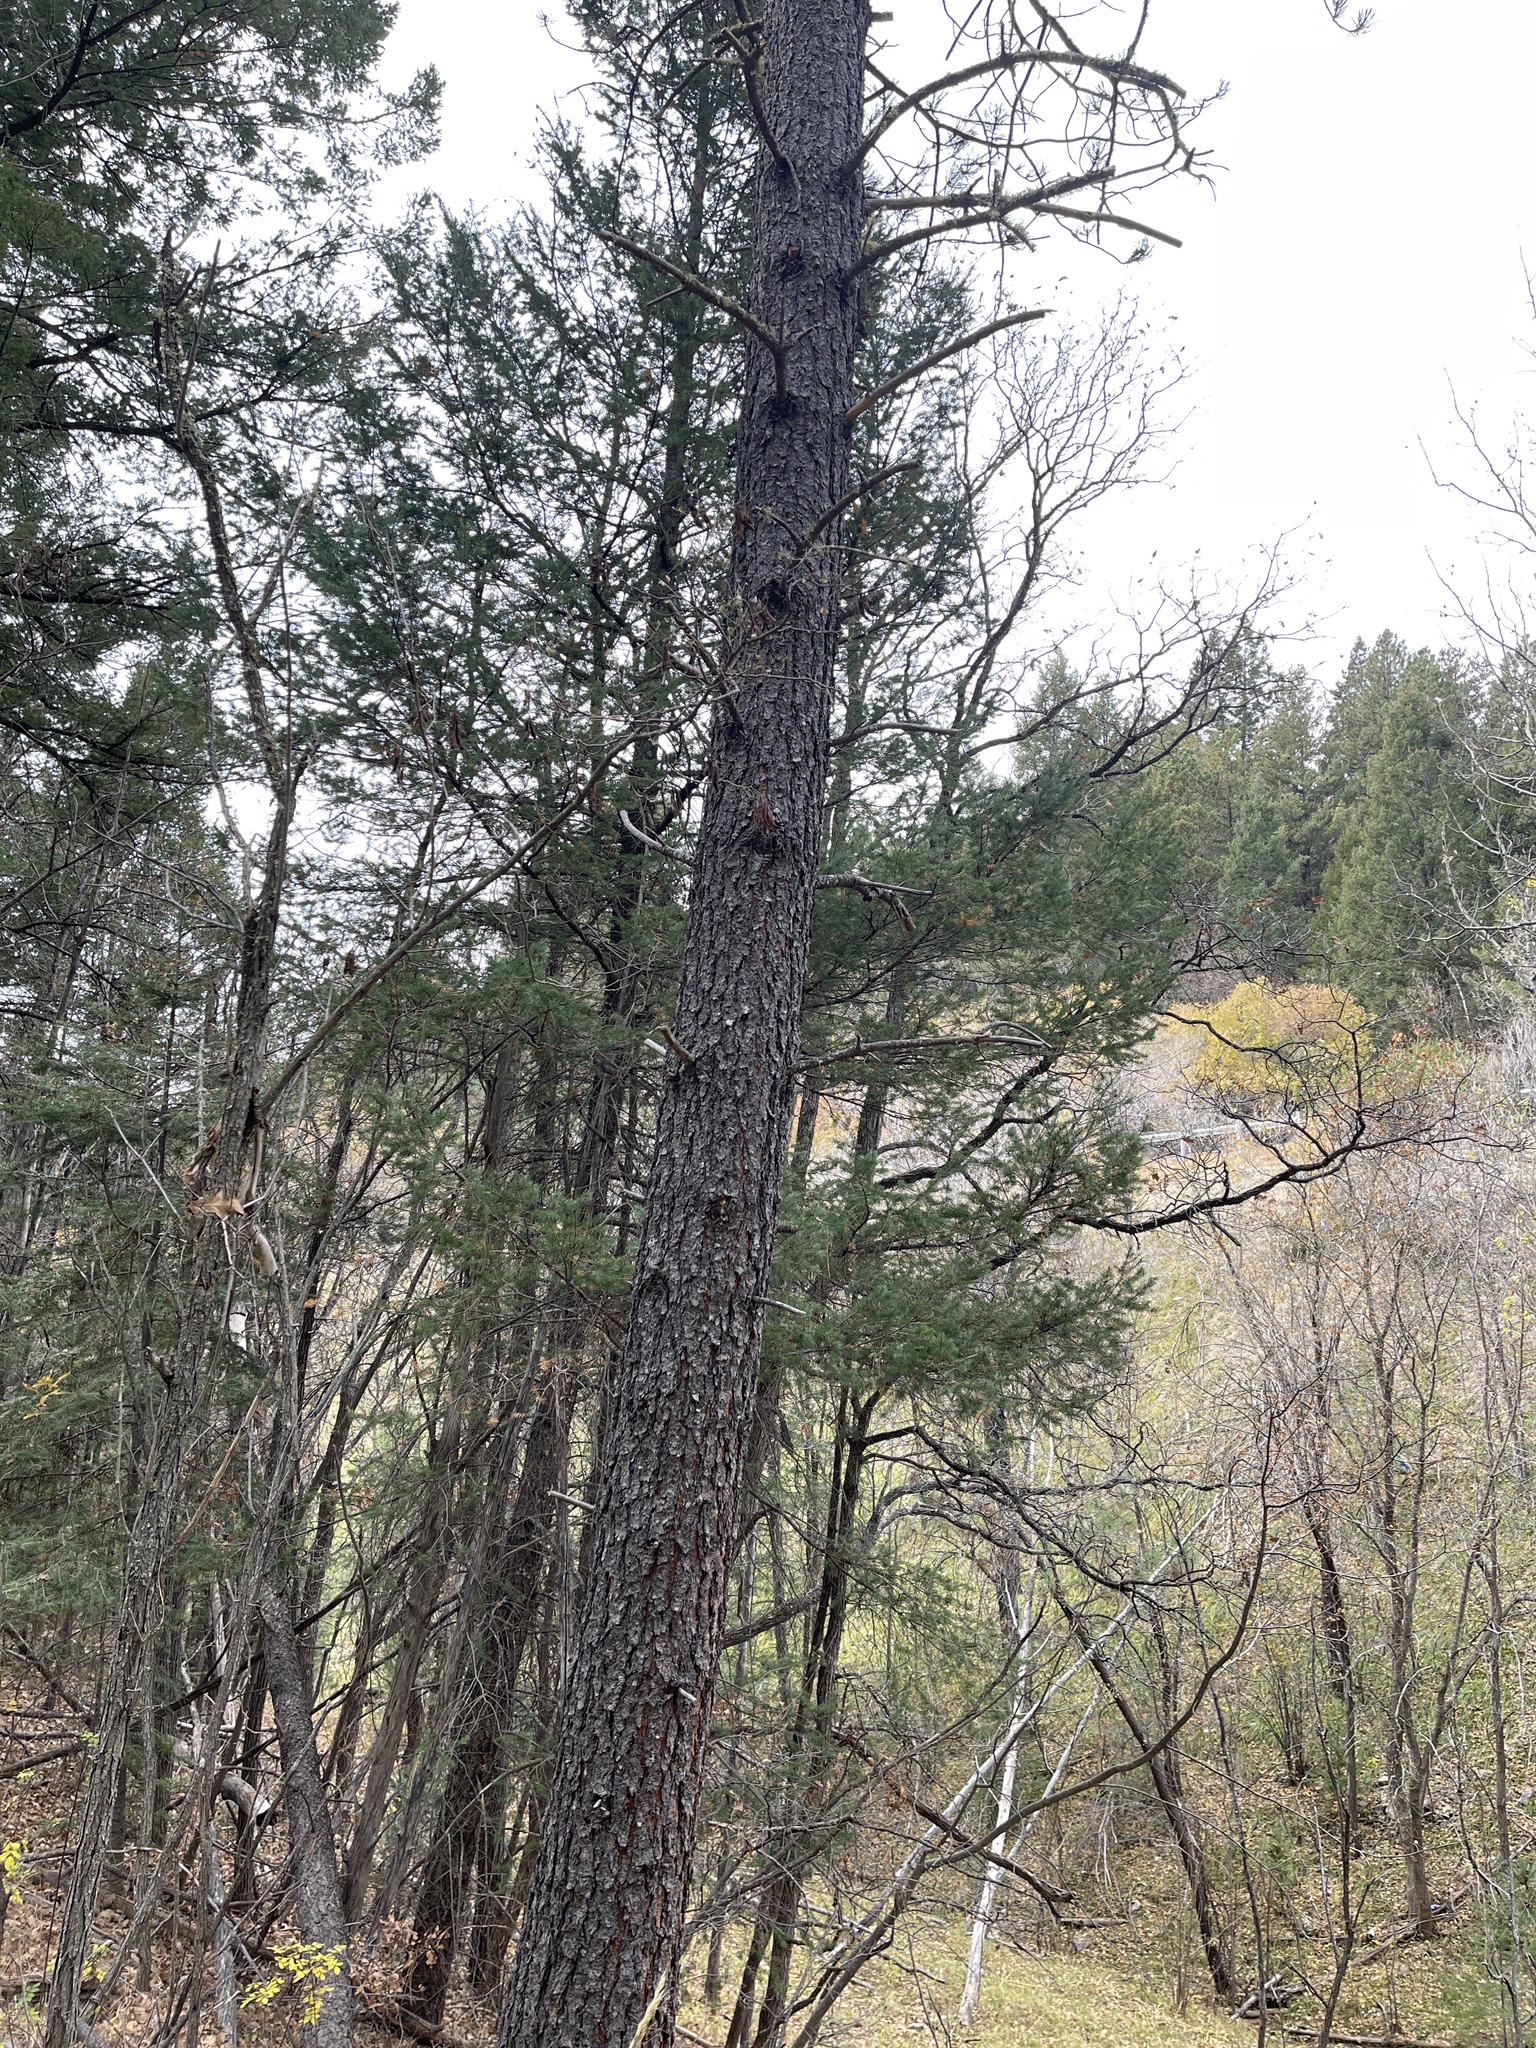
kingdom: Plantae
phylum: Tracheophyta
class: Pinopsida
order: Pinales
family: Pinaceae
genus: Pinus
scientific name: Pinus ponderosa
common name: Western yellow-pine
